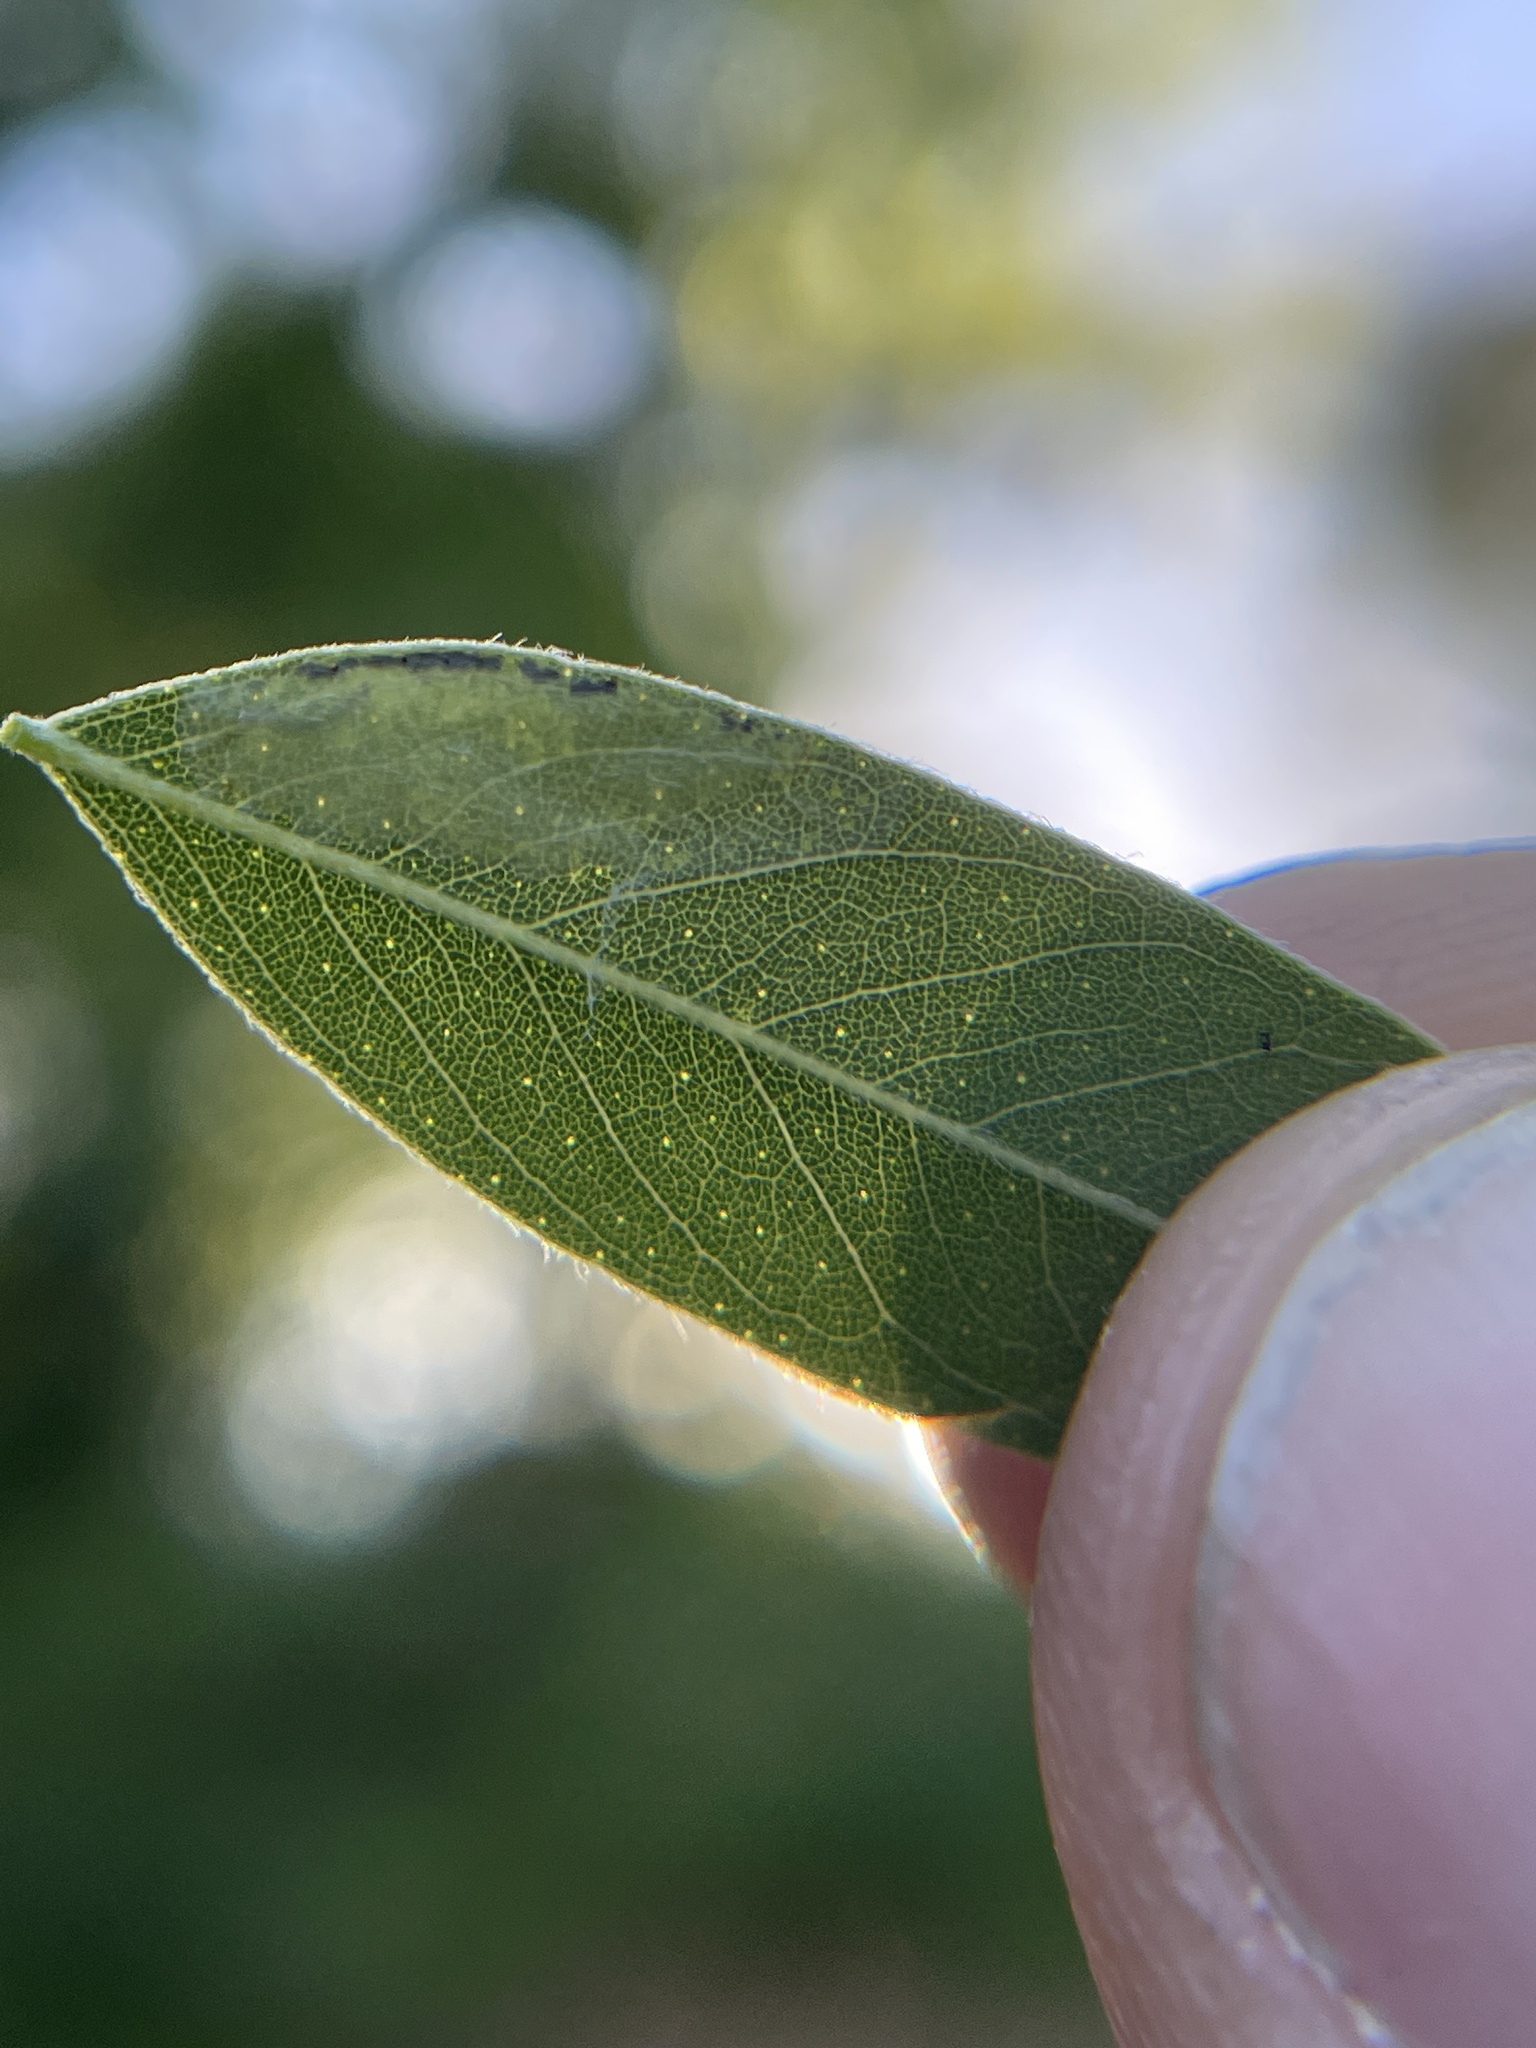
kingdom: Animalia
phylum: Arthropoda
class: Insecta
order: Lepidoptera
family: Gracillariidae
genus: Macrosaccus
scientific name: Macrosaccus uhlerella
